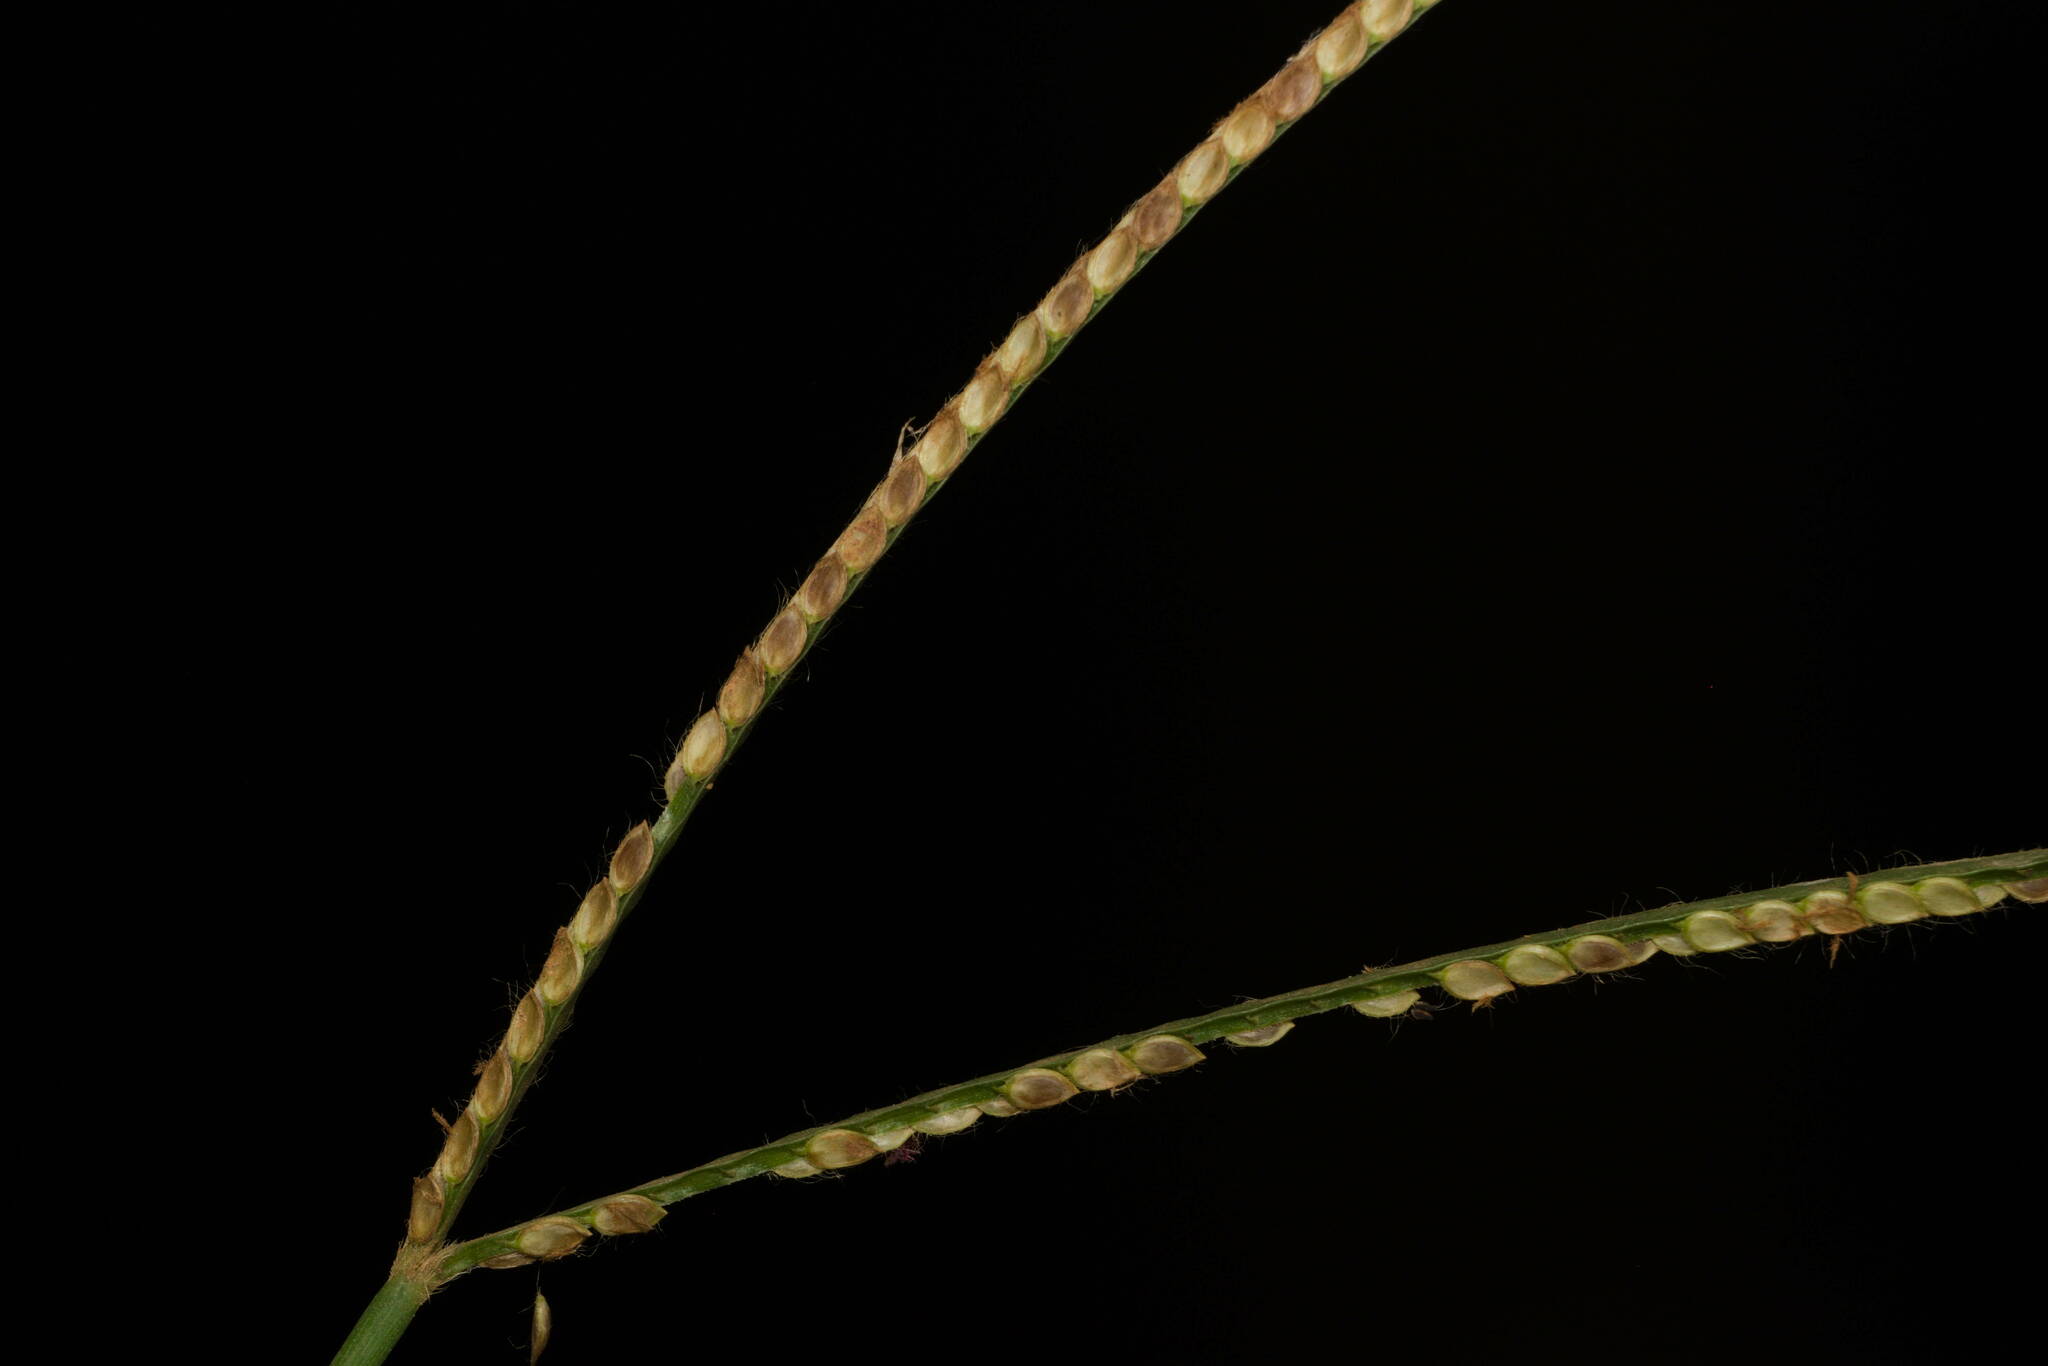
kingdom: Plantae
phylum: Tracheophyta
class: Liliopsida
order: Poales
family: Poaceae
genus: Paspalum
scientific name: Paspalum conjugatum
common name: Hilograss
